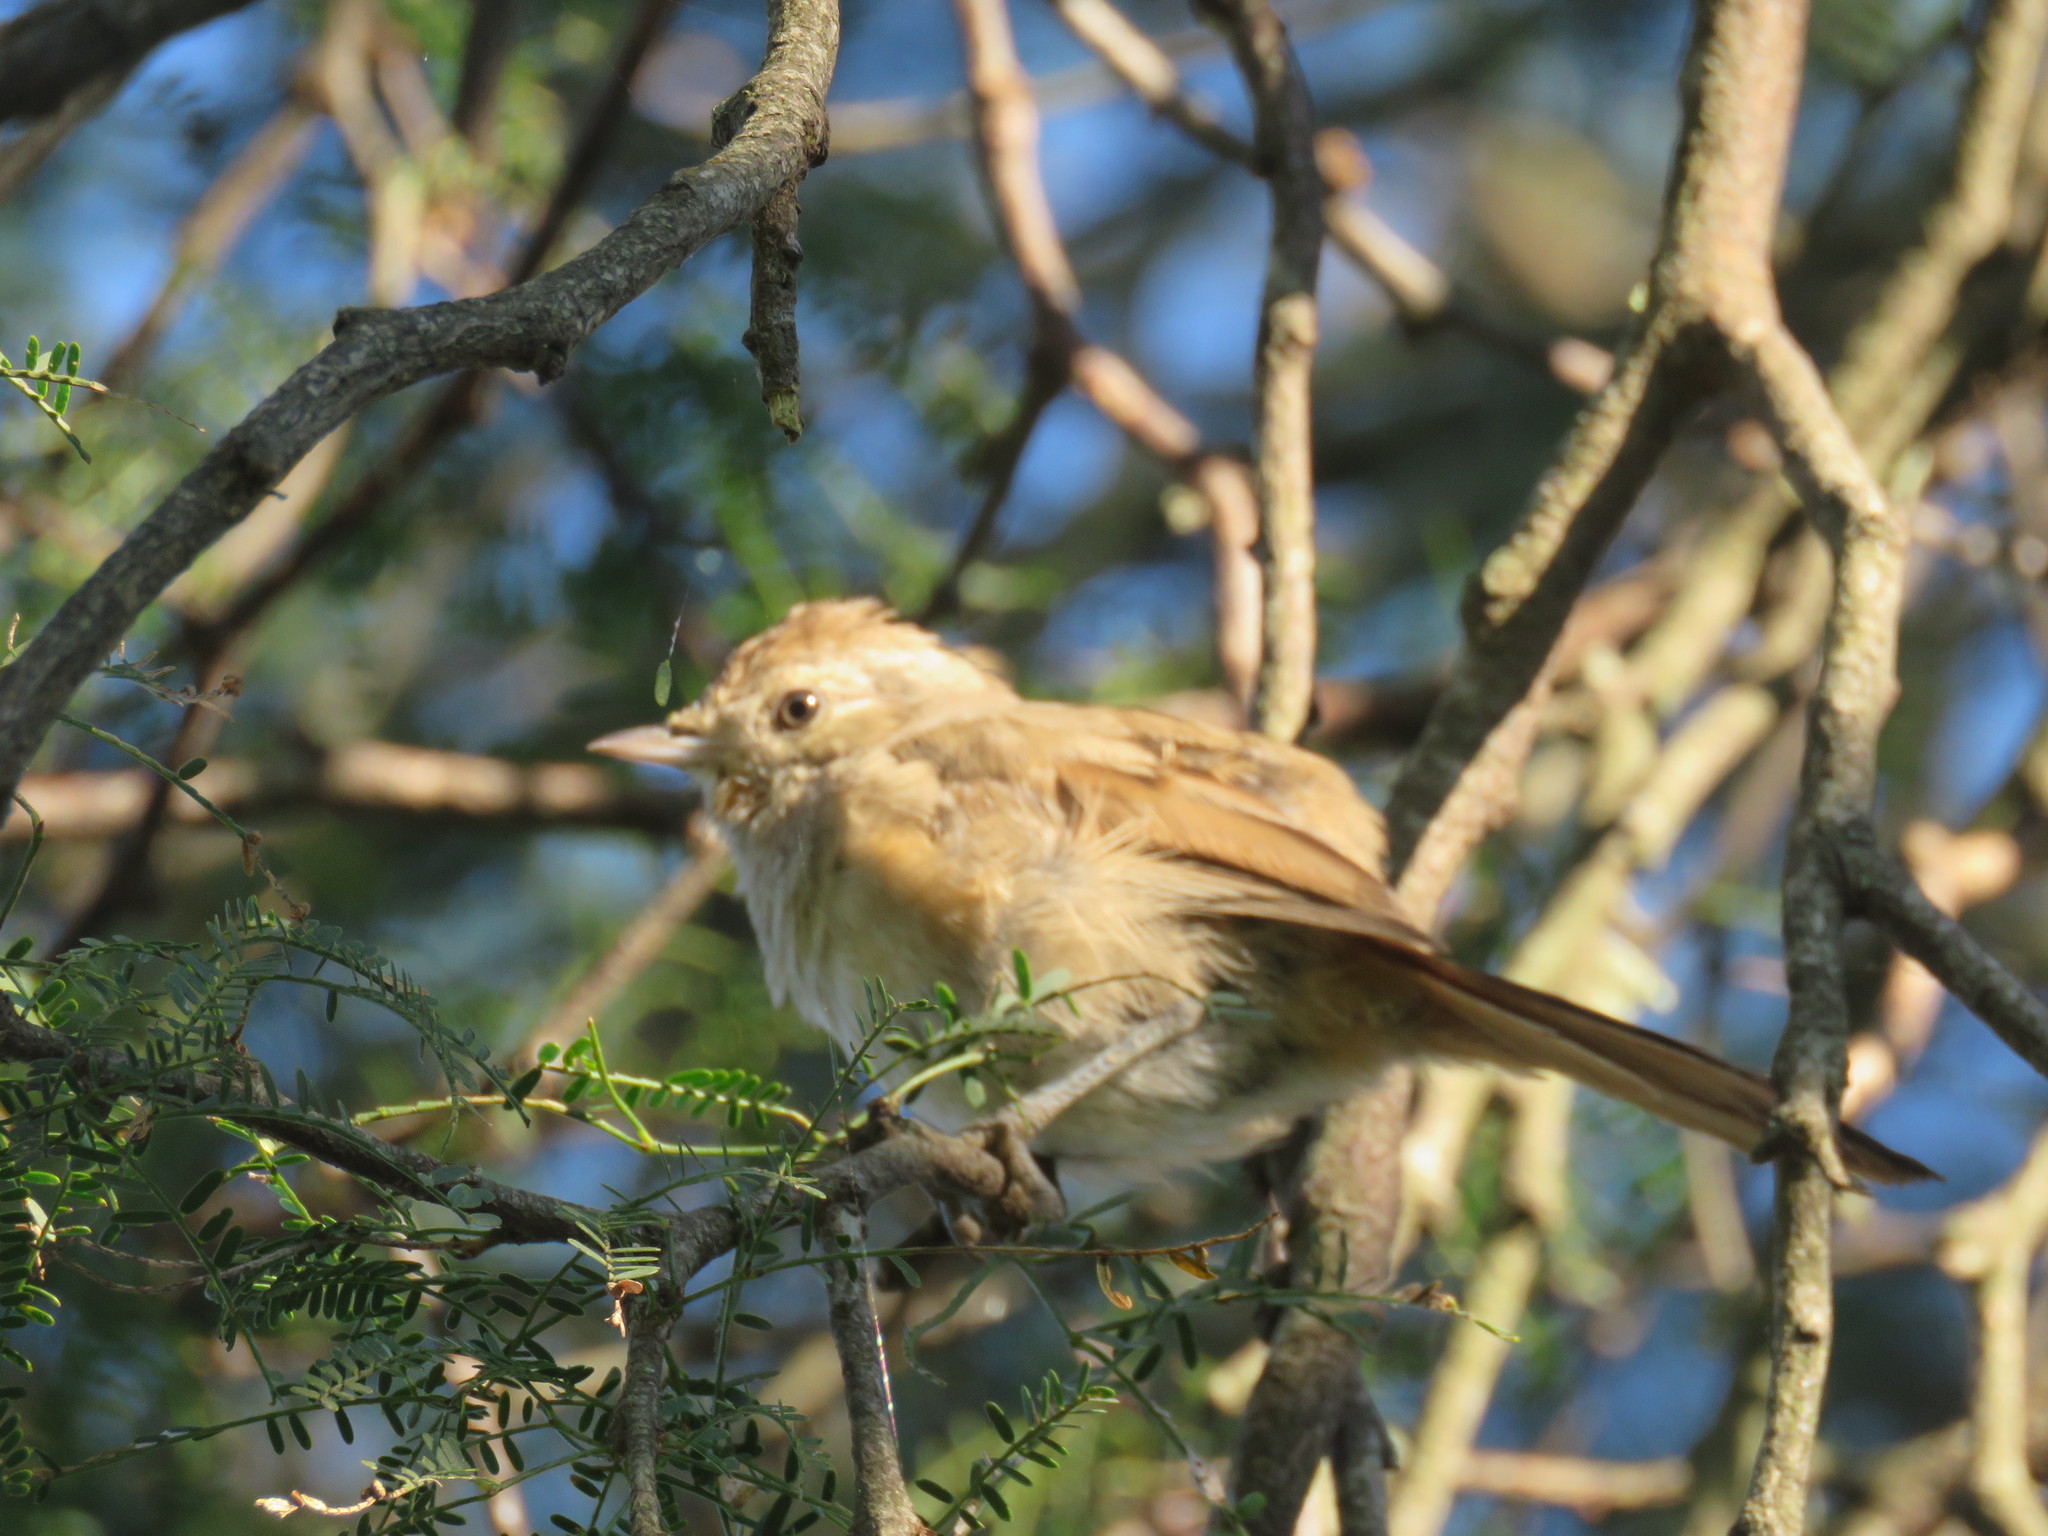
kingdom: Animalia
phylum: Chordata
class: Aves
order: Passeriformes
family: Furnariidae
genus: Asthenes
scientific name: Asthenes baeri
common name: Short-billed canastero
